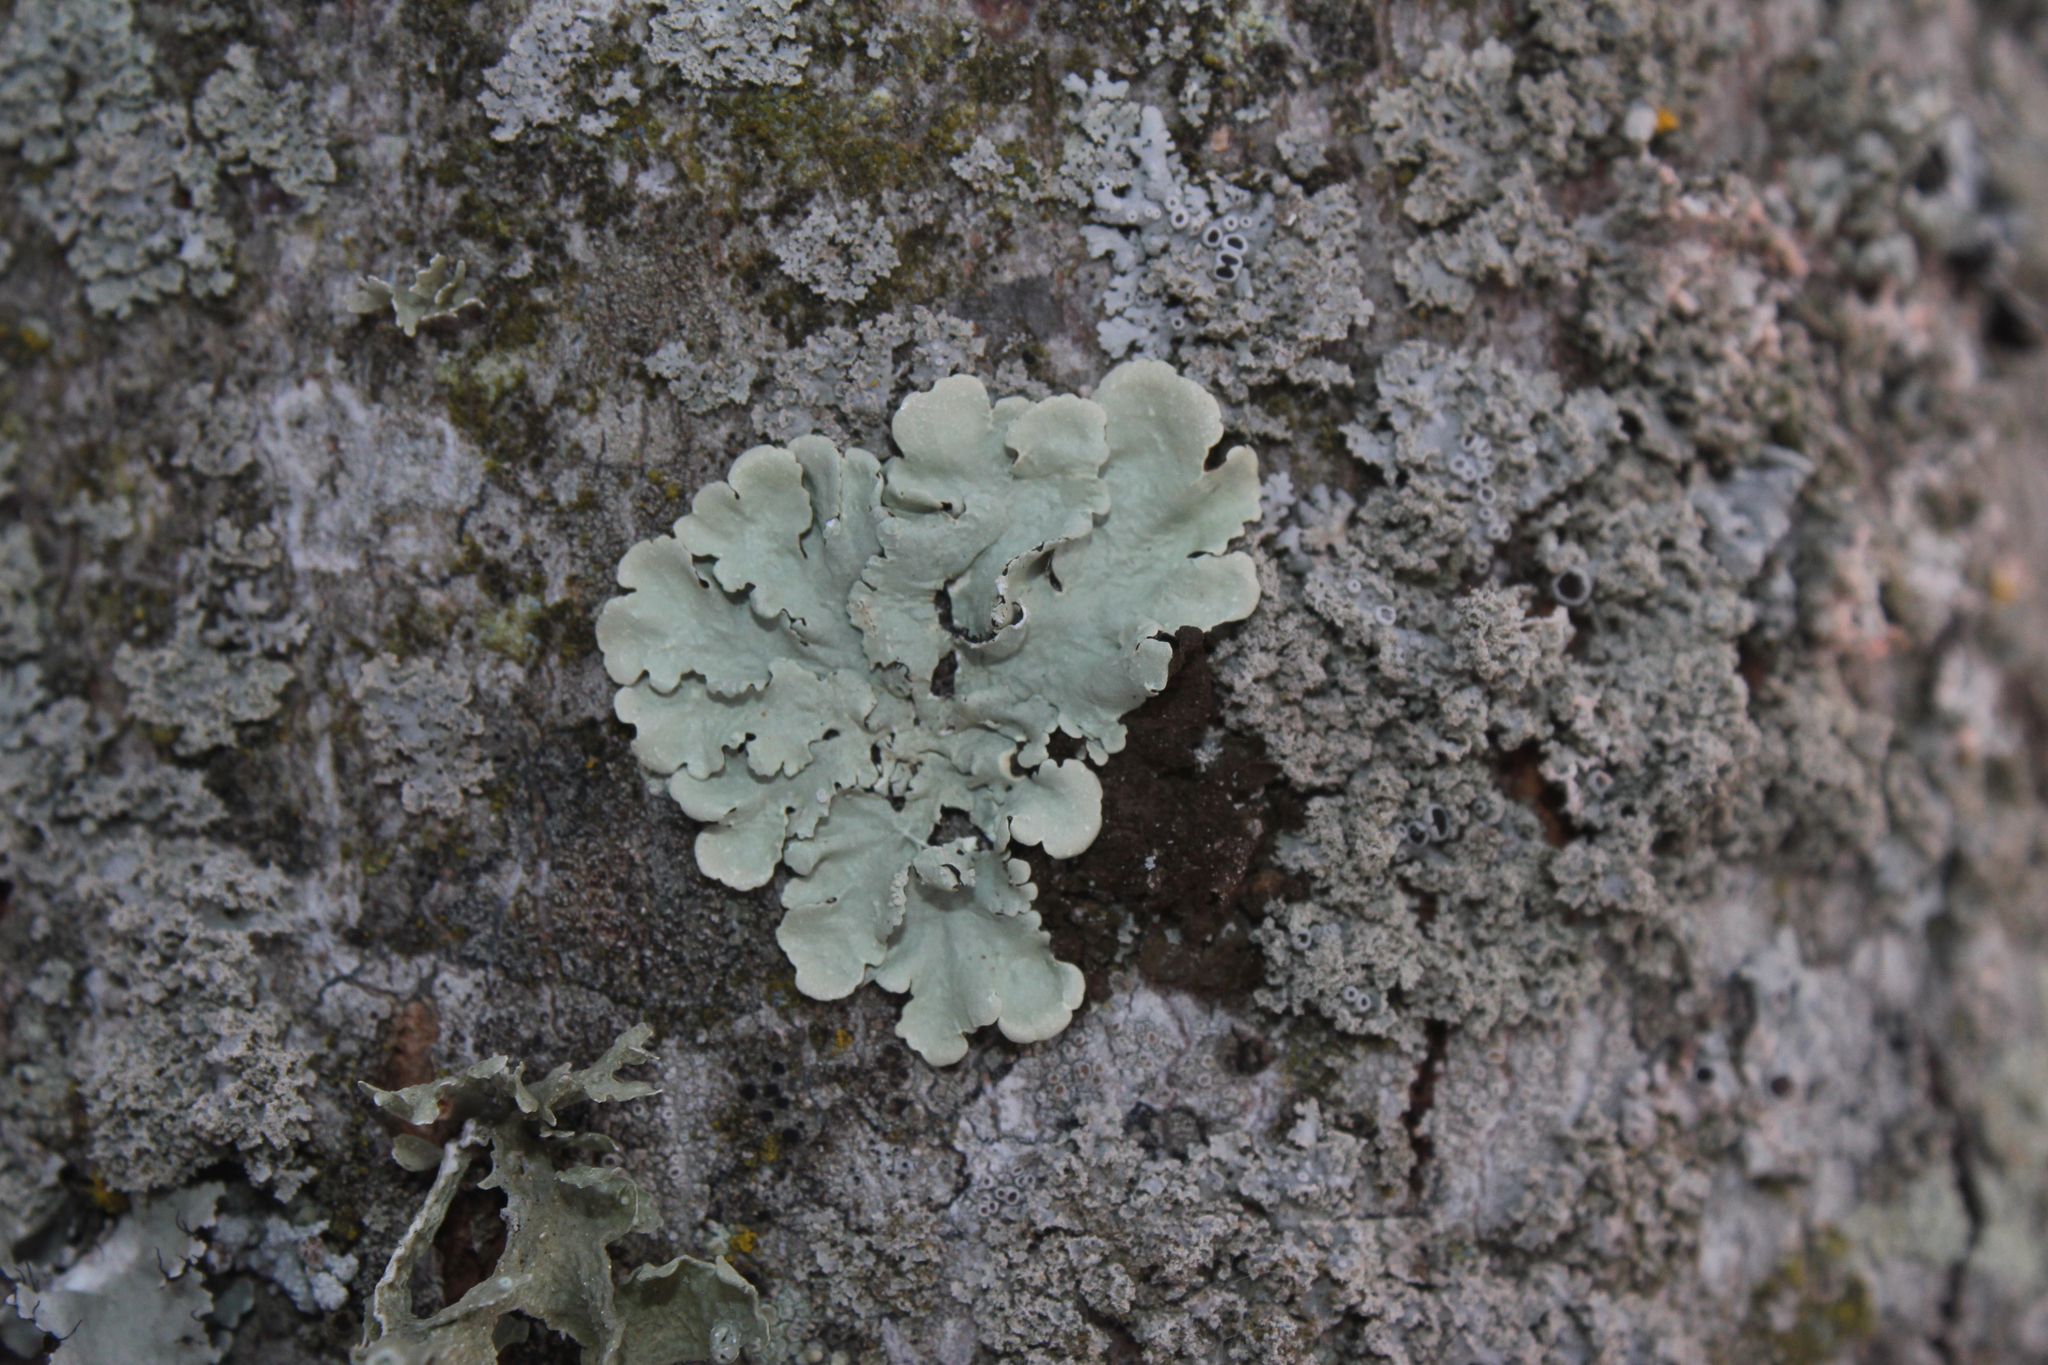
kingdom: Fungi
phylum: Ascomycota
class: Lecanoromycetes
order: Lecanorales
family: Parmeliaceae
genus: Flavoparmelia
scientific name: Flavoparmelia caperata
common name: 40-mile per hour lichen
